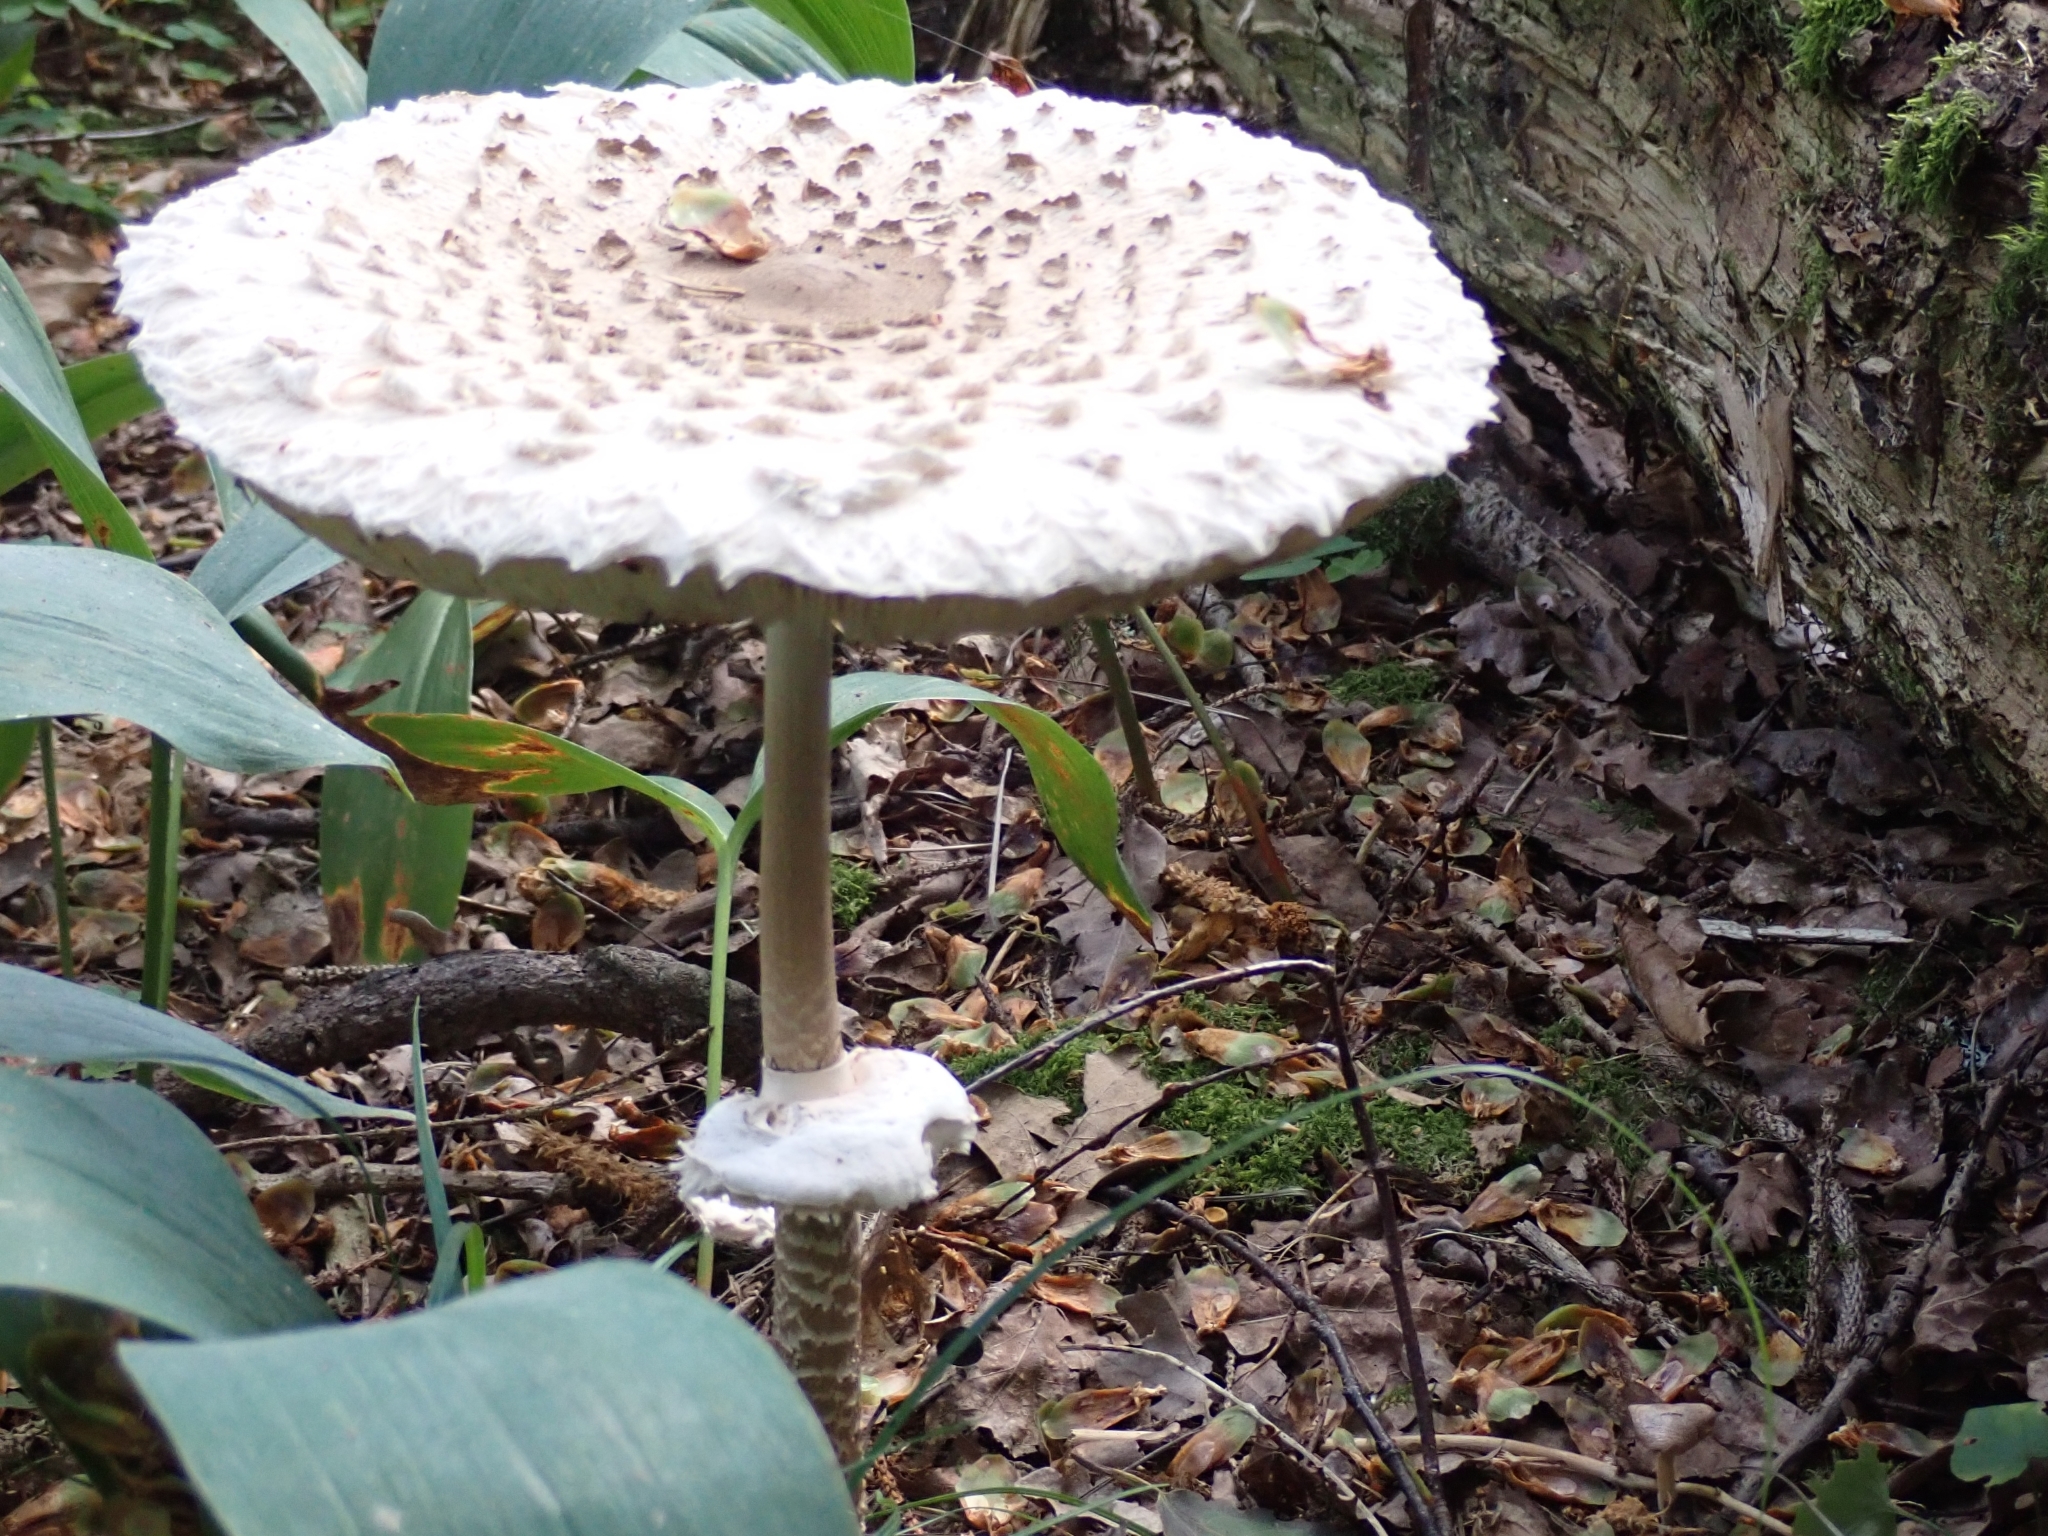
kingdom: Fungi
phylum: Basidiomycota
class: Agaricomycetes
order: Agaricales
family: Agaricaceae
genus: Macrolepiota
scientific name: Macrolepiota procera
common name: Parasol
